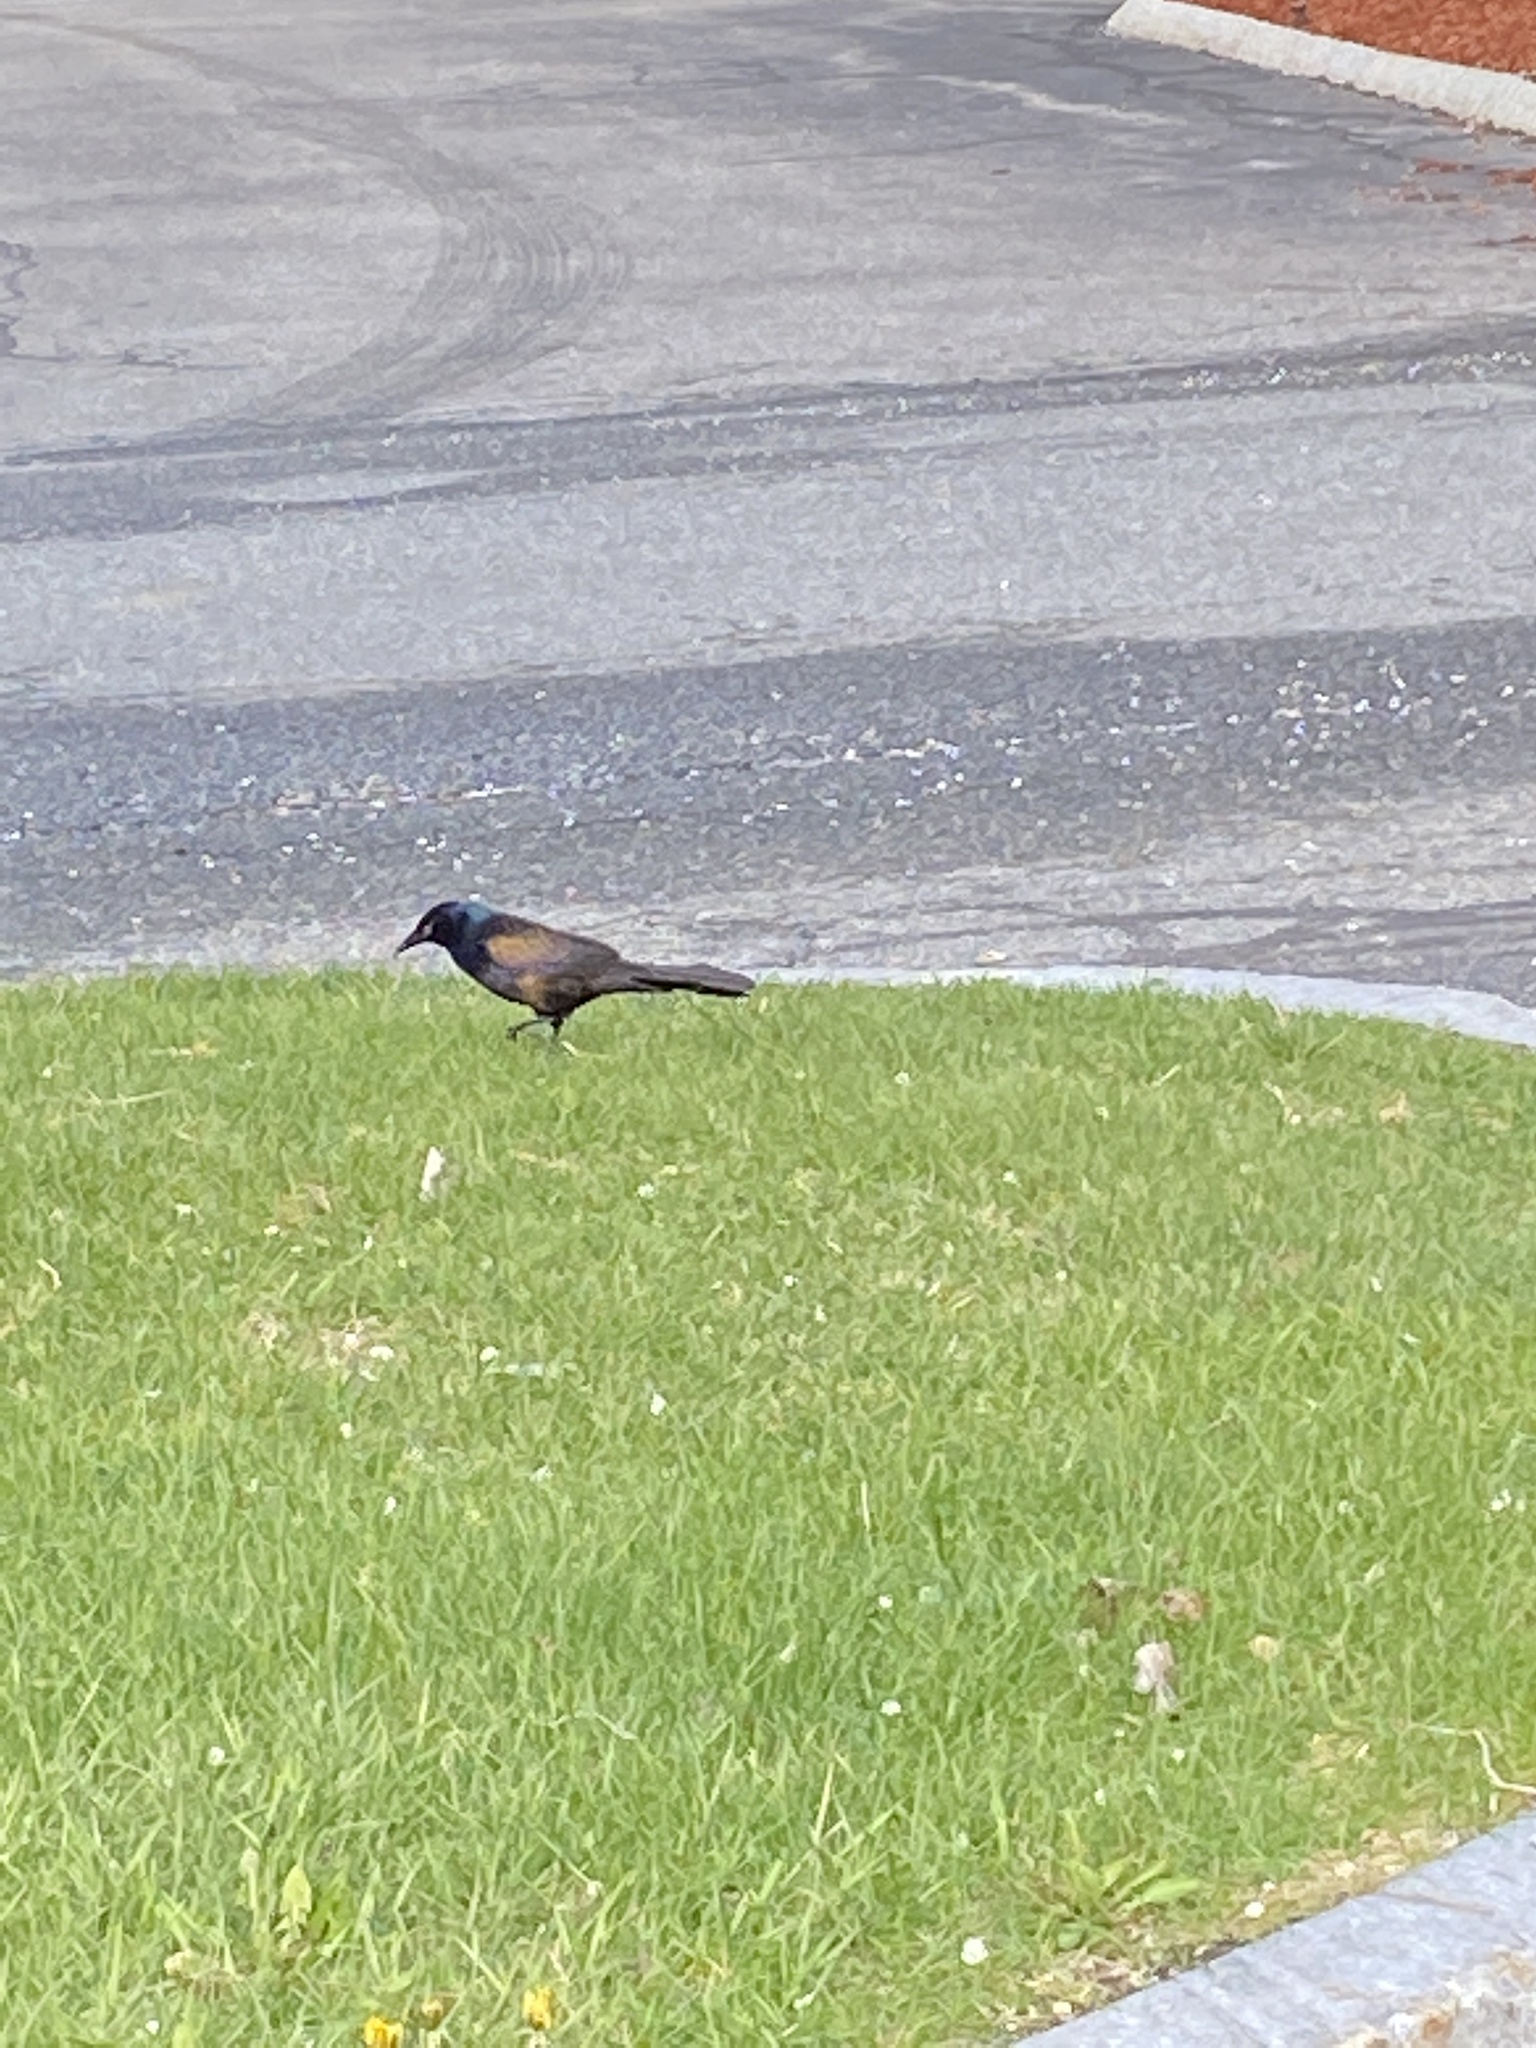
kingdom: Animalia
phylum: Chordata
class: Aves
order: Passeriformes
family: Icteridae
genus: Quiscalus
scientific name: Quiscalus quiscula
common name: Common grackle
